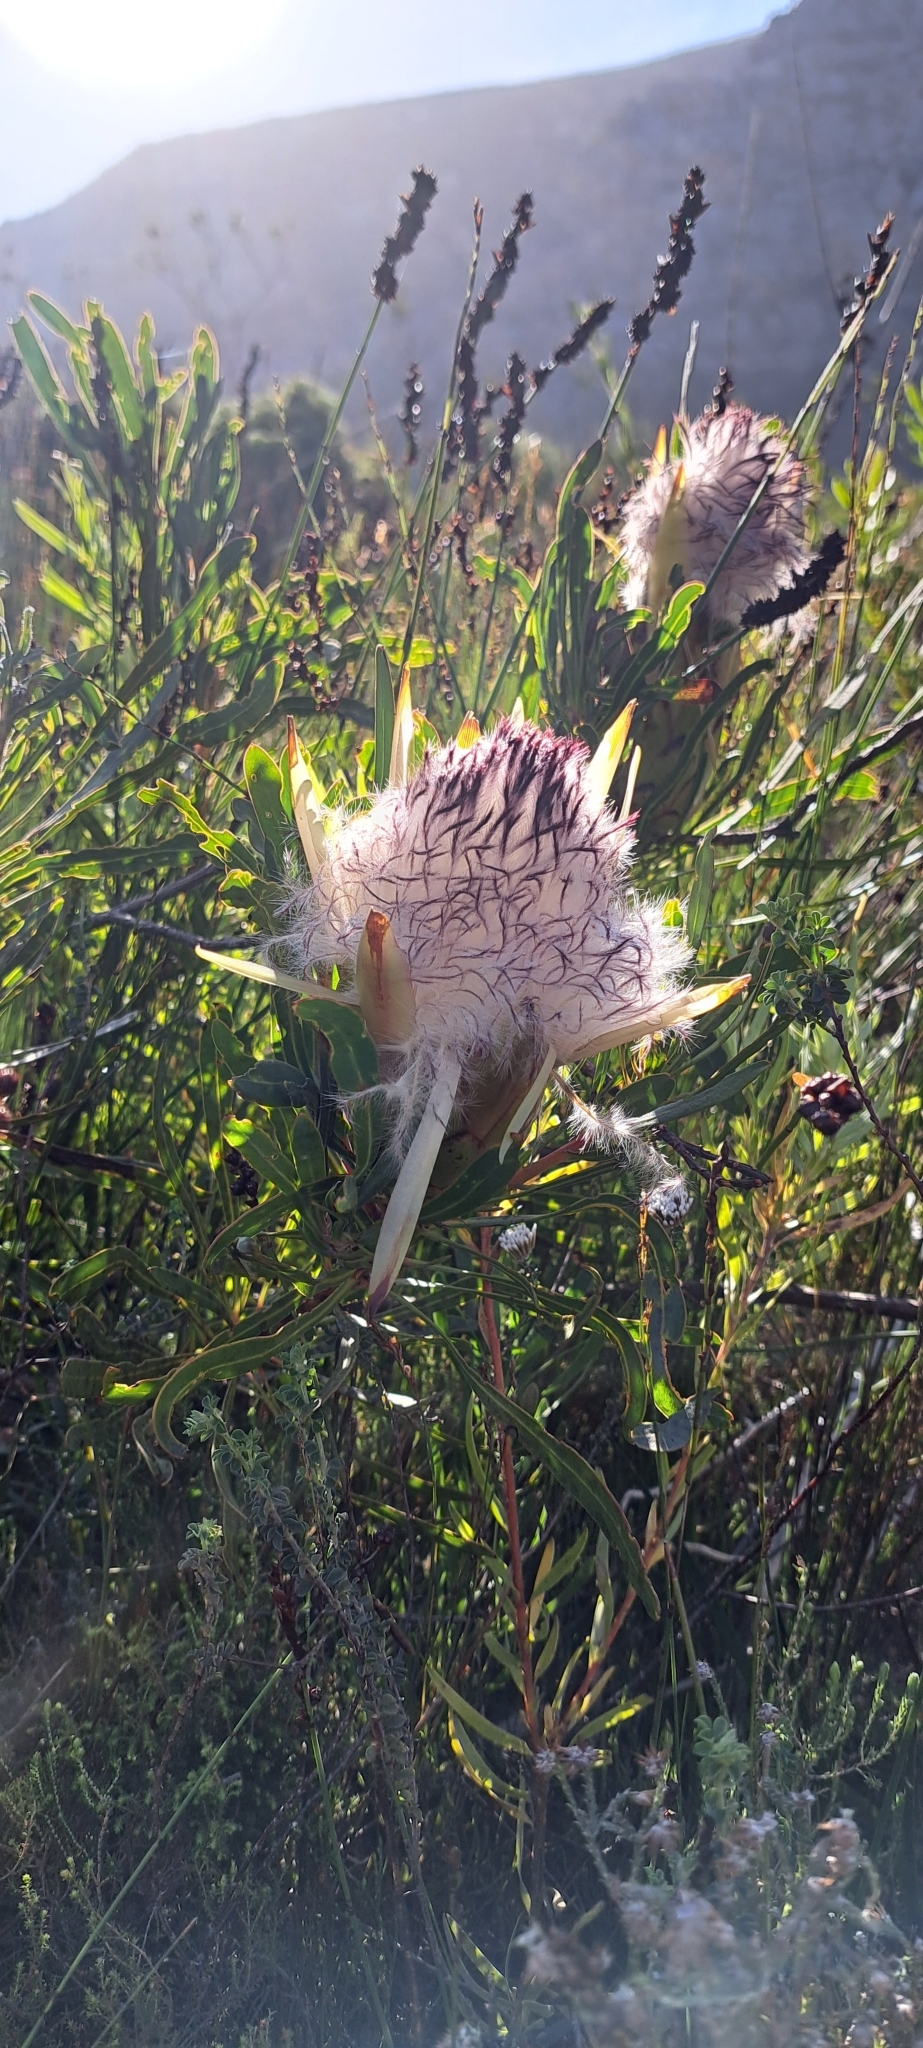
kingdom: Plantae
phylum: Tracheophyta
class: Magnoliopsida
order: Proteales
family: Proteaceae
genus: Protea
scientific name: Protea longifolia
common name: Long-leaf sugarbush
